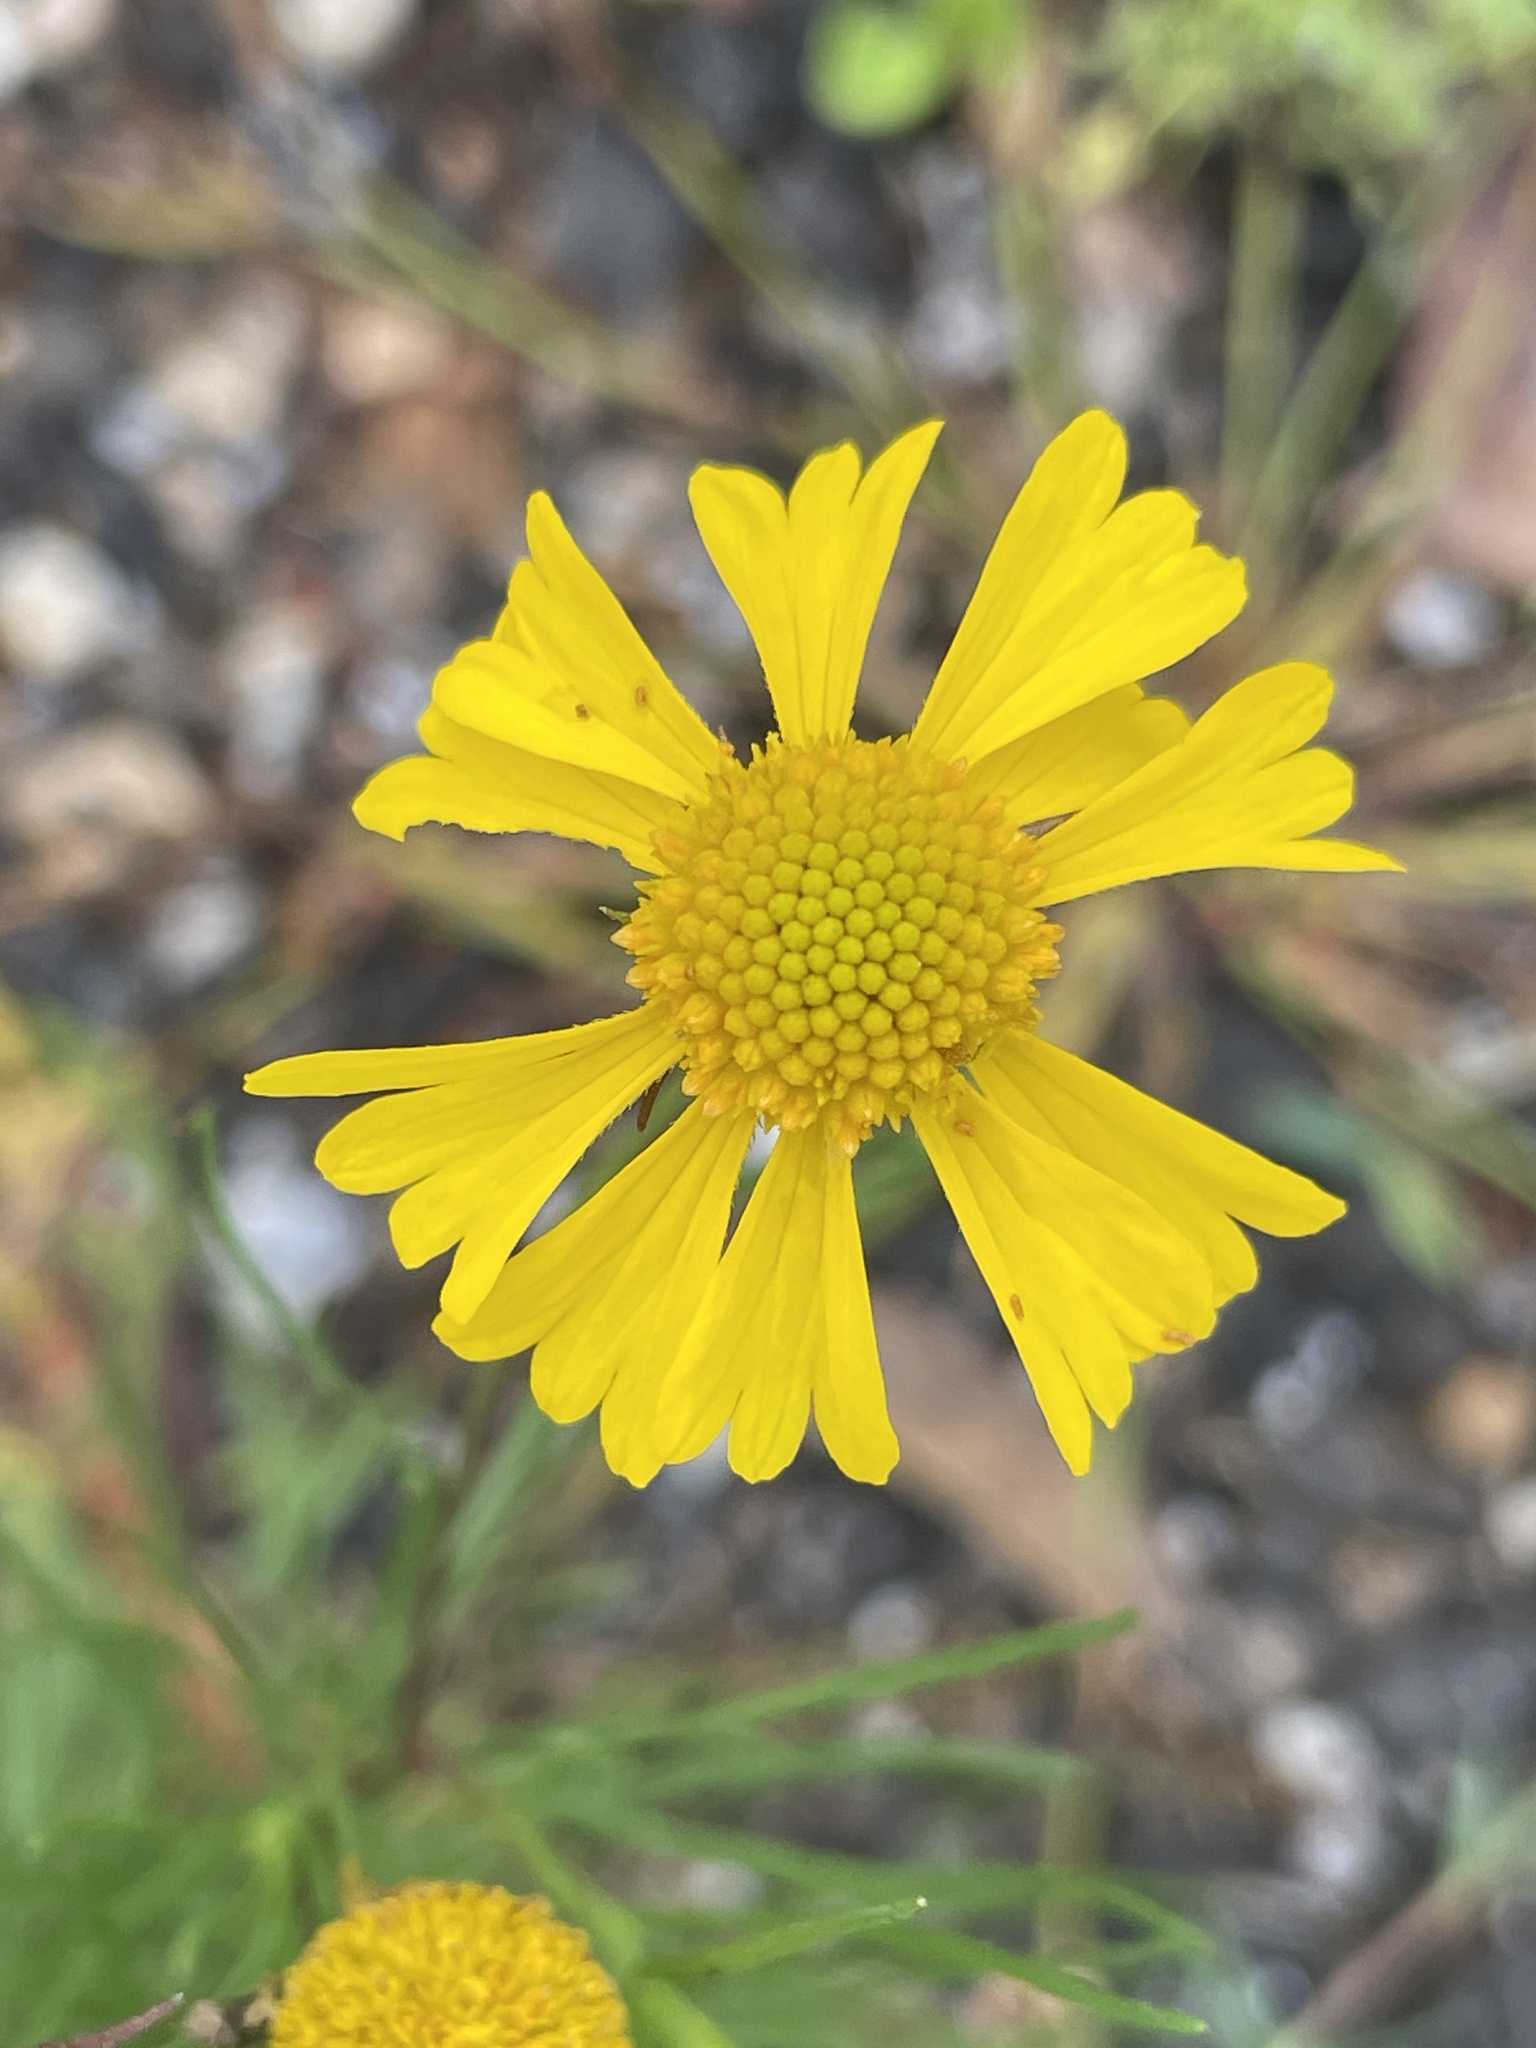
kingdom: Plantae
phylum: Tracheophyta
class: Magnoliopsida
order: Asterales
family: Asteraceae
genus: Helenium
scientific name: Helenium amarum
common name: Bitter sneezeweed
